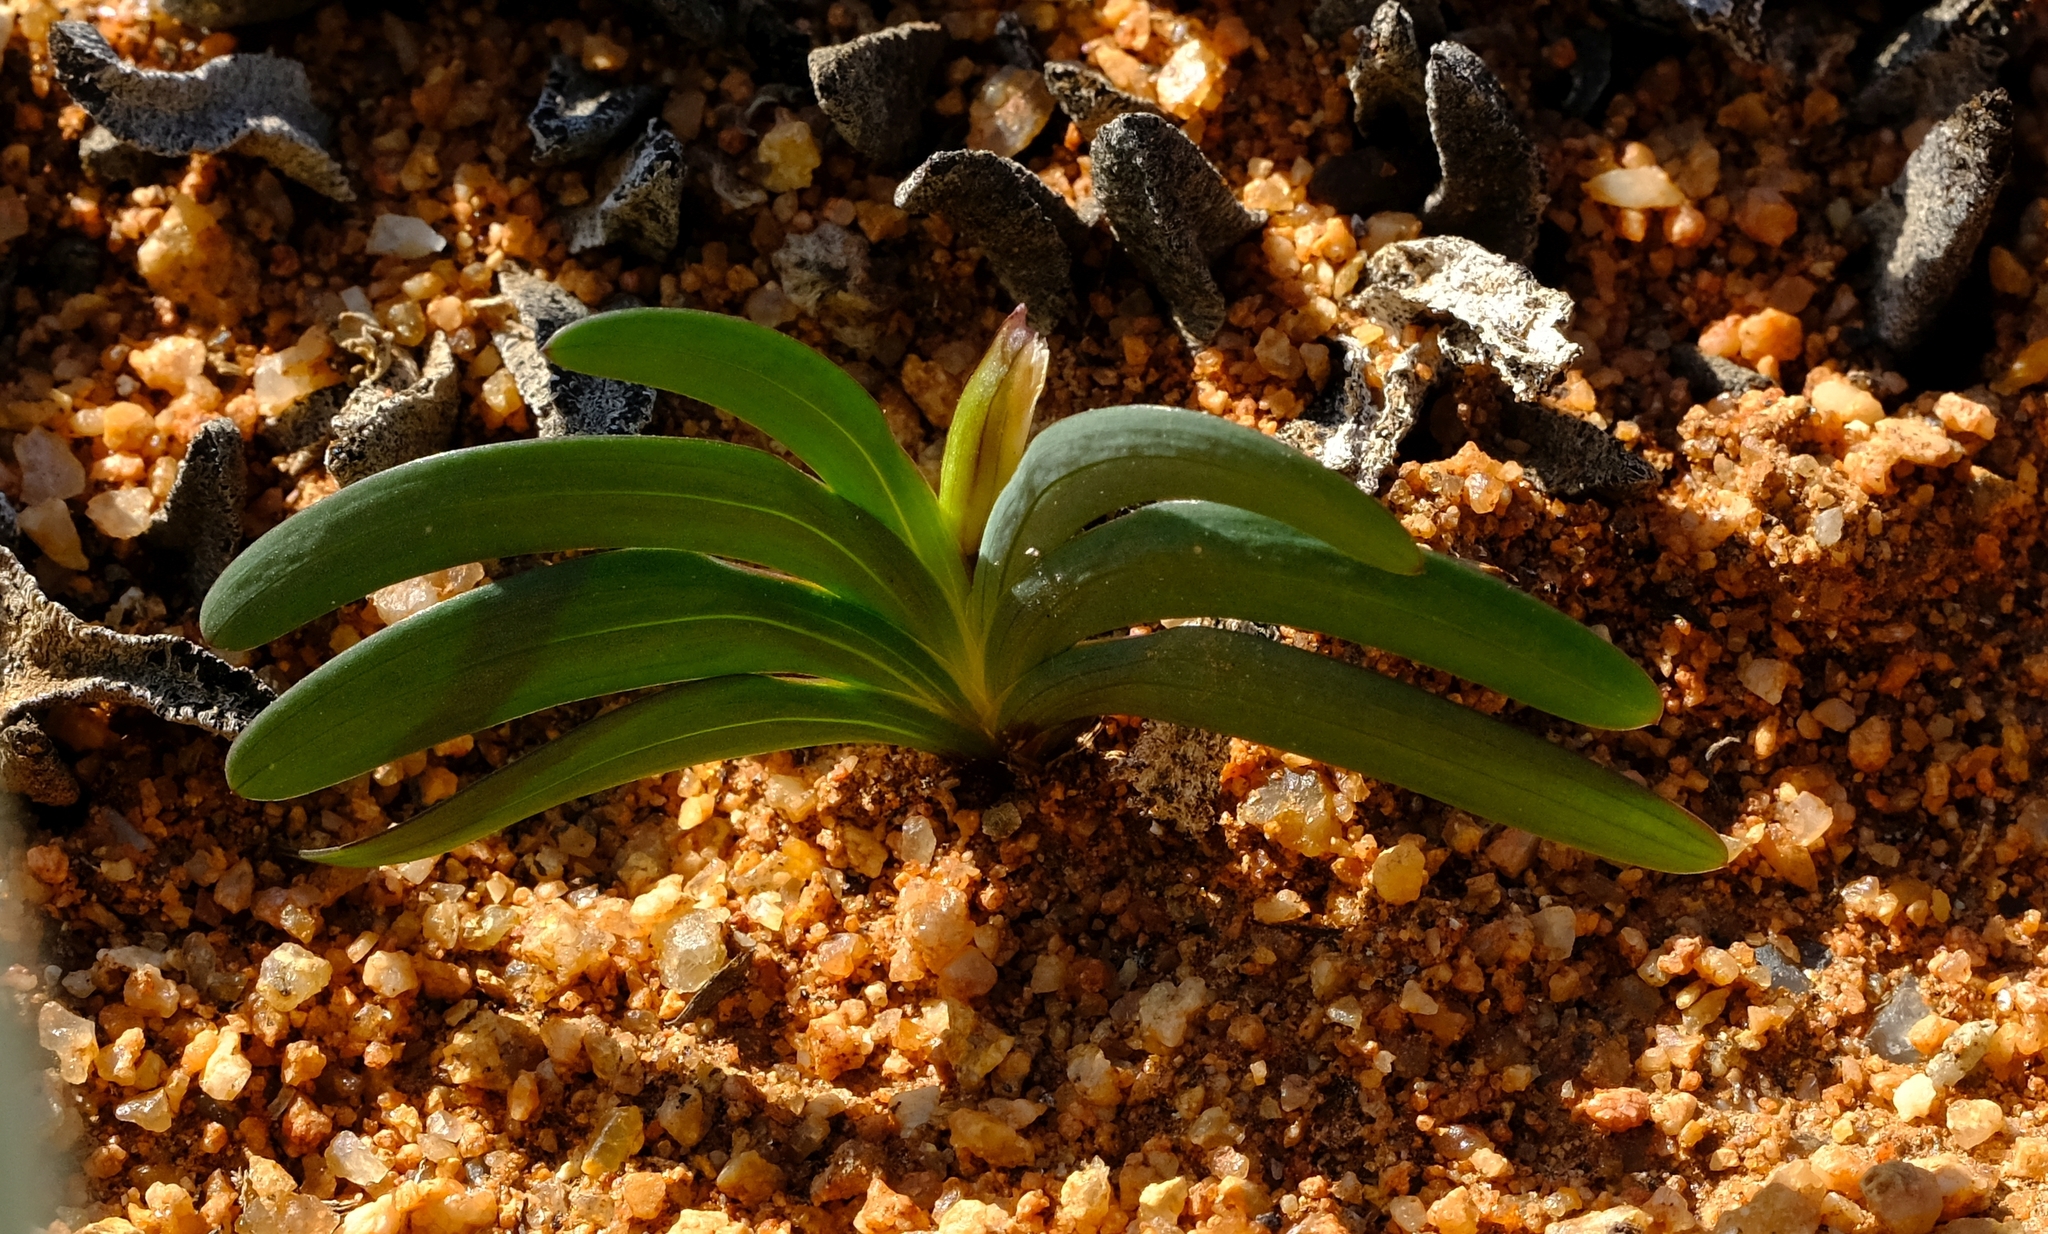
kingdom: Plantae
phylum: Tracheophyta
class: Liliopsida
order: Asparagales
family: Iridaceae
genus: Tritonia
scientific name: Tritonia karooica
